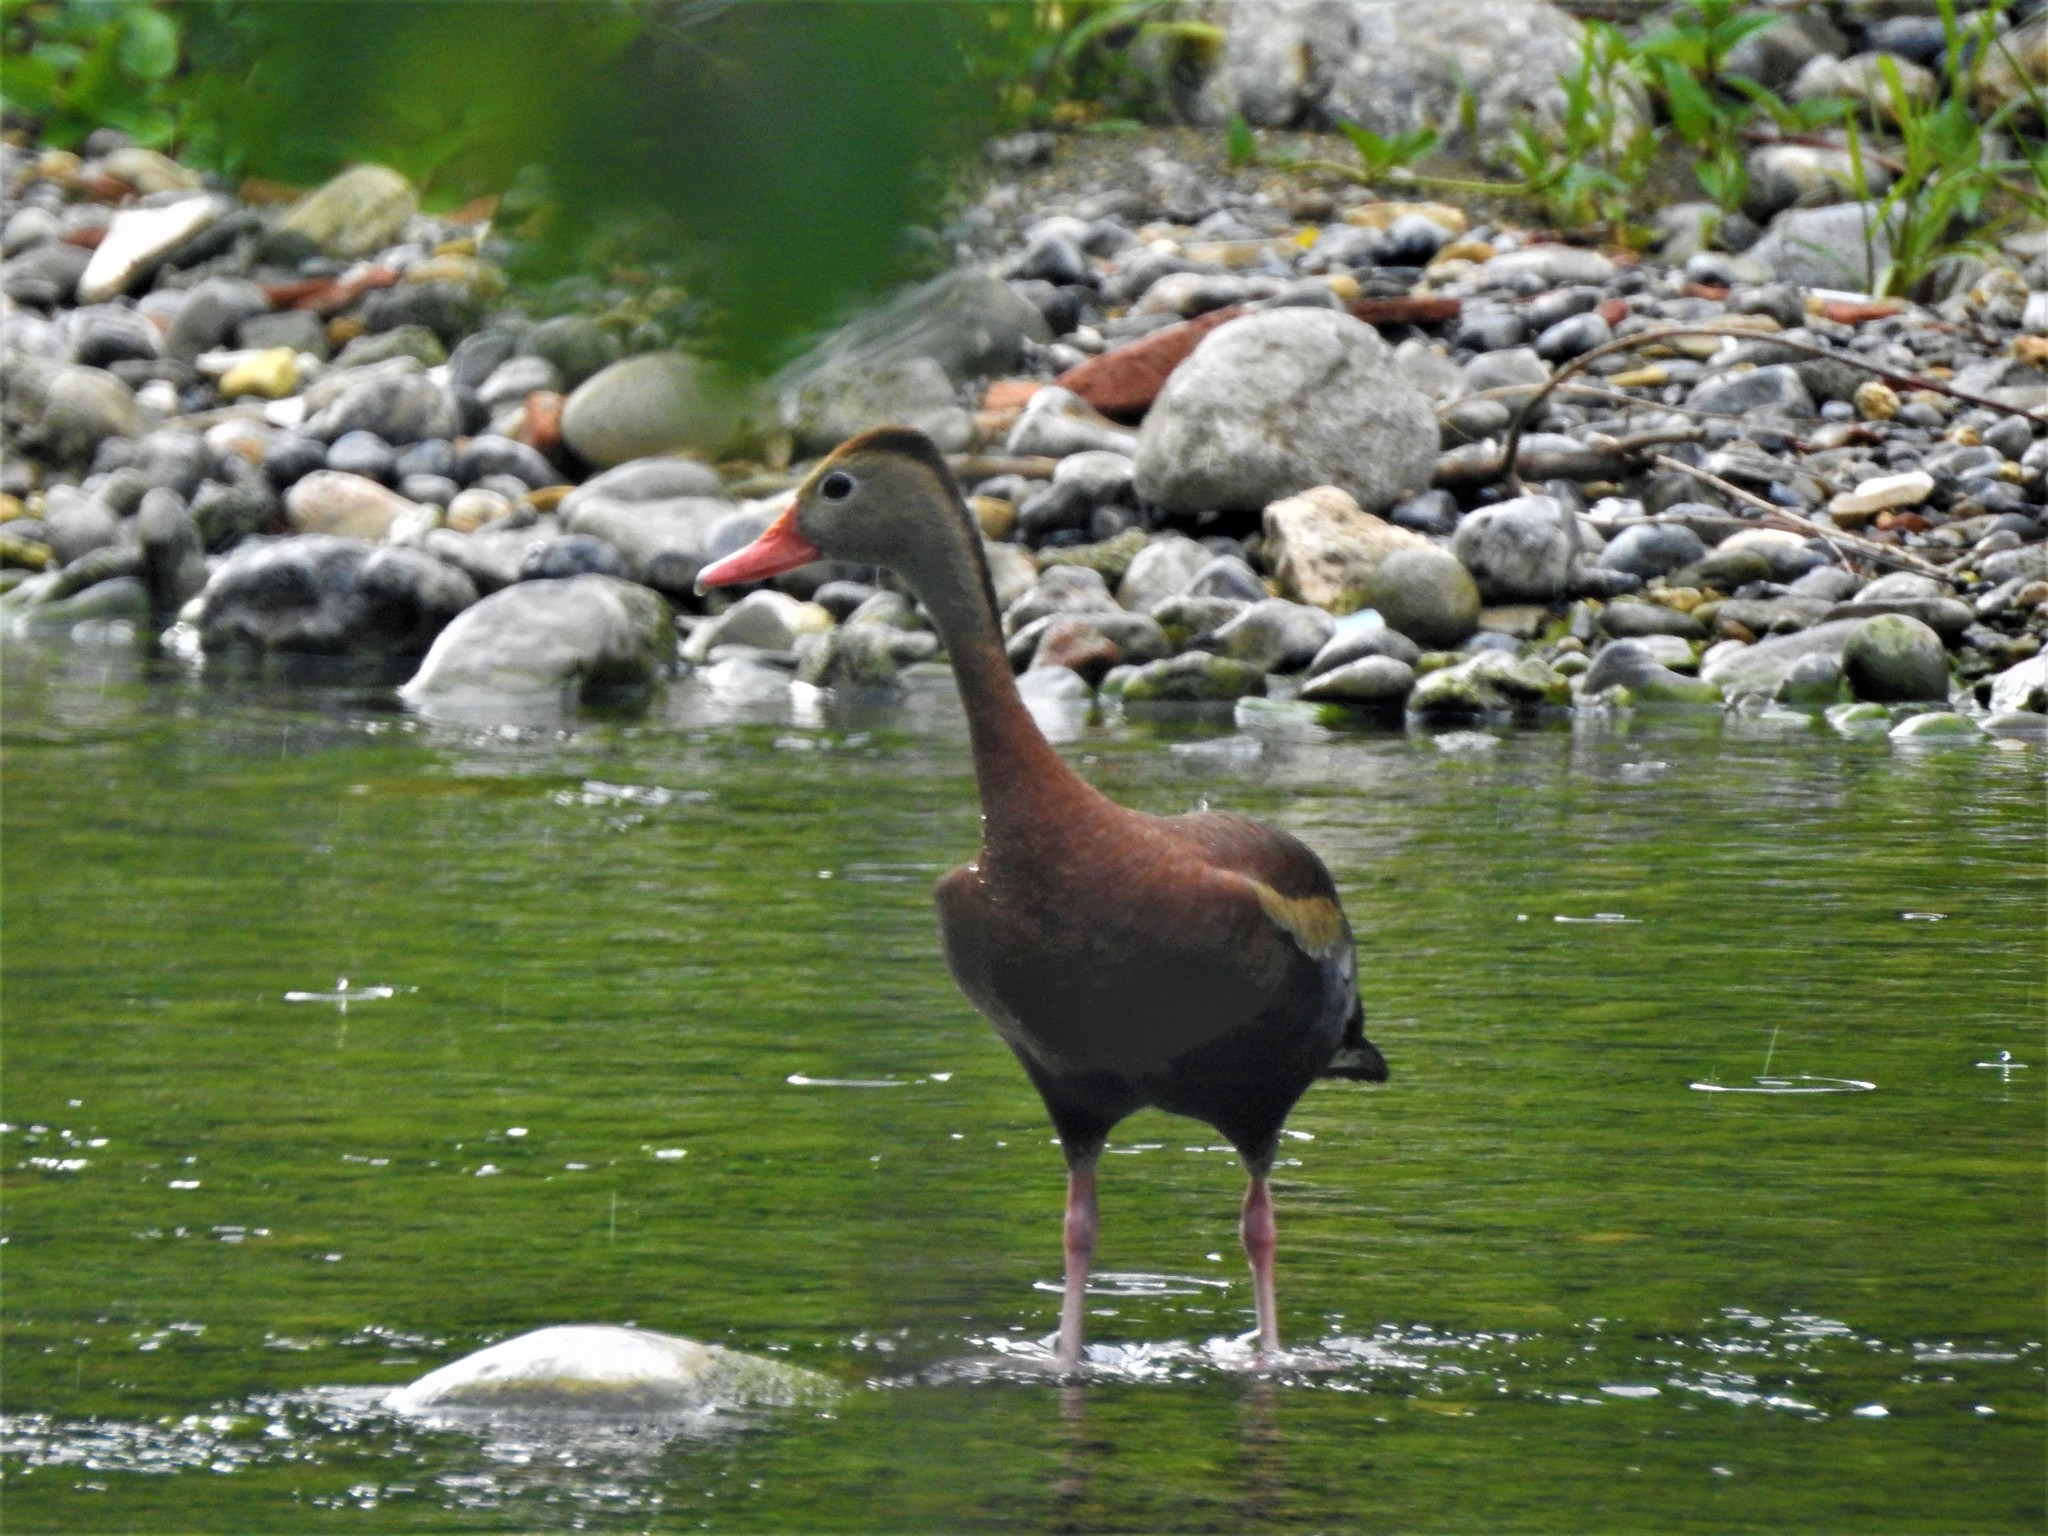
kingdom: Animalia
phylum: Chordata
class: Aves
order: Anseriformes
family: Anatidae
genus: Dendrocygna
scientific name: Dendrocygna autumnalis
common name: Black-bellied whistling duck
